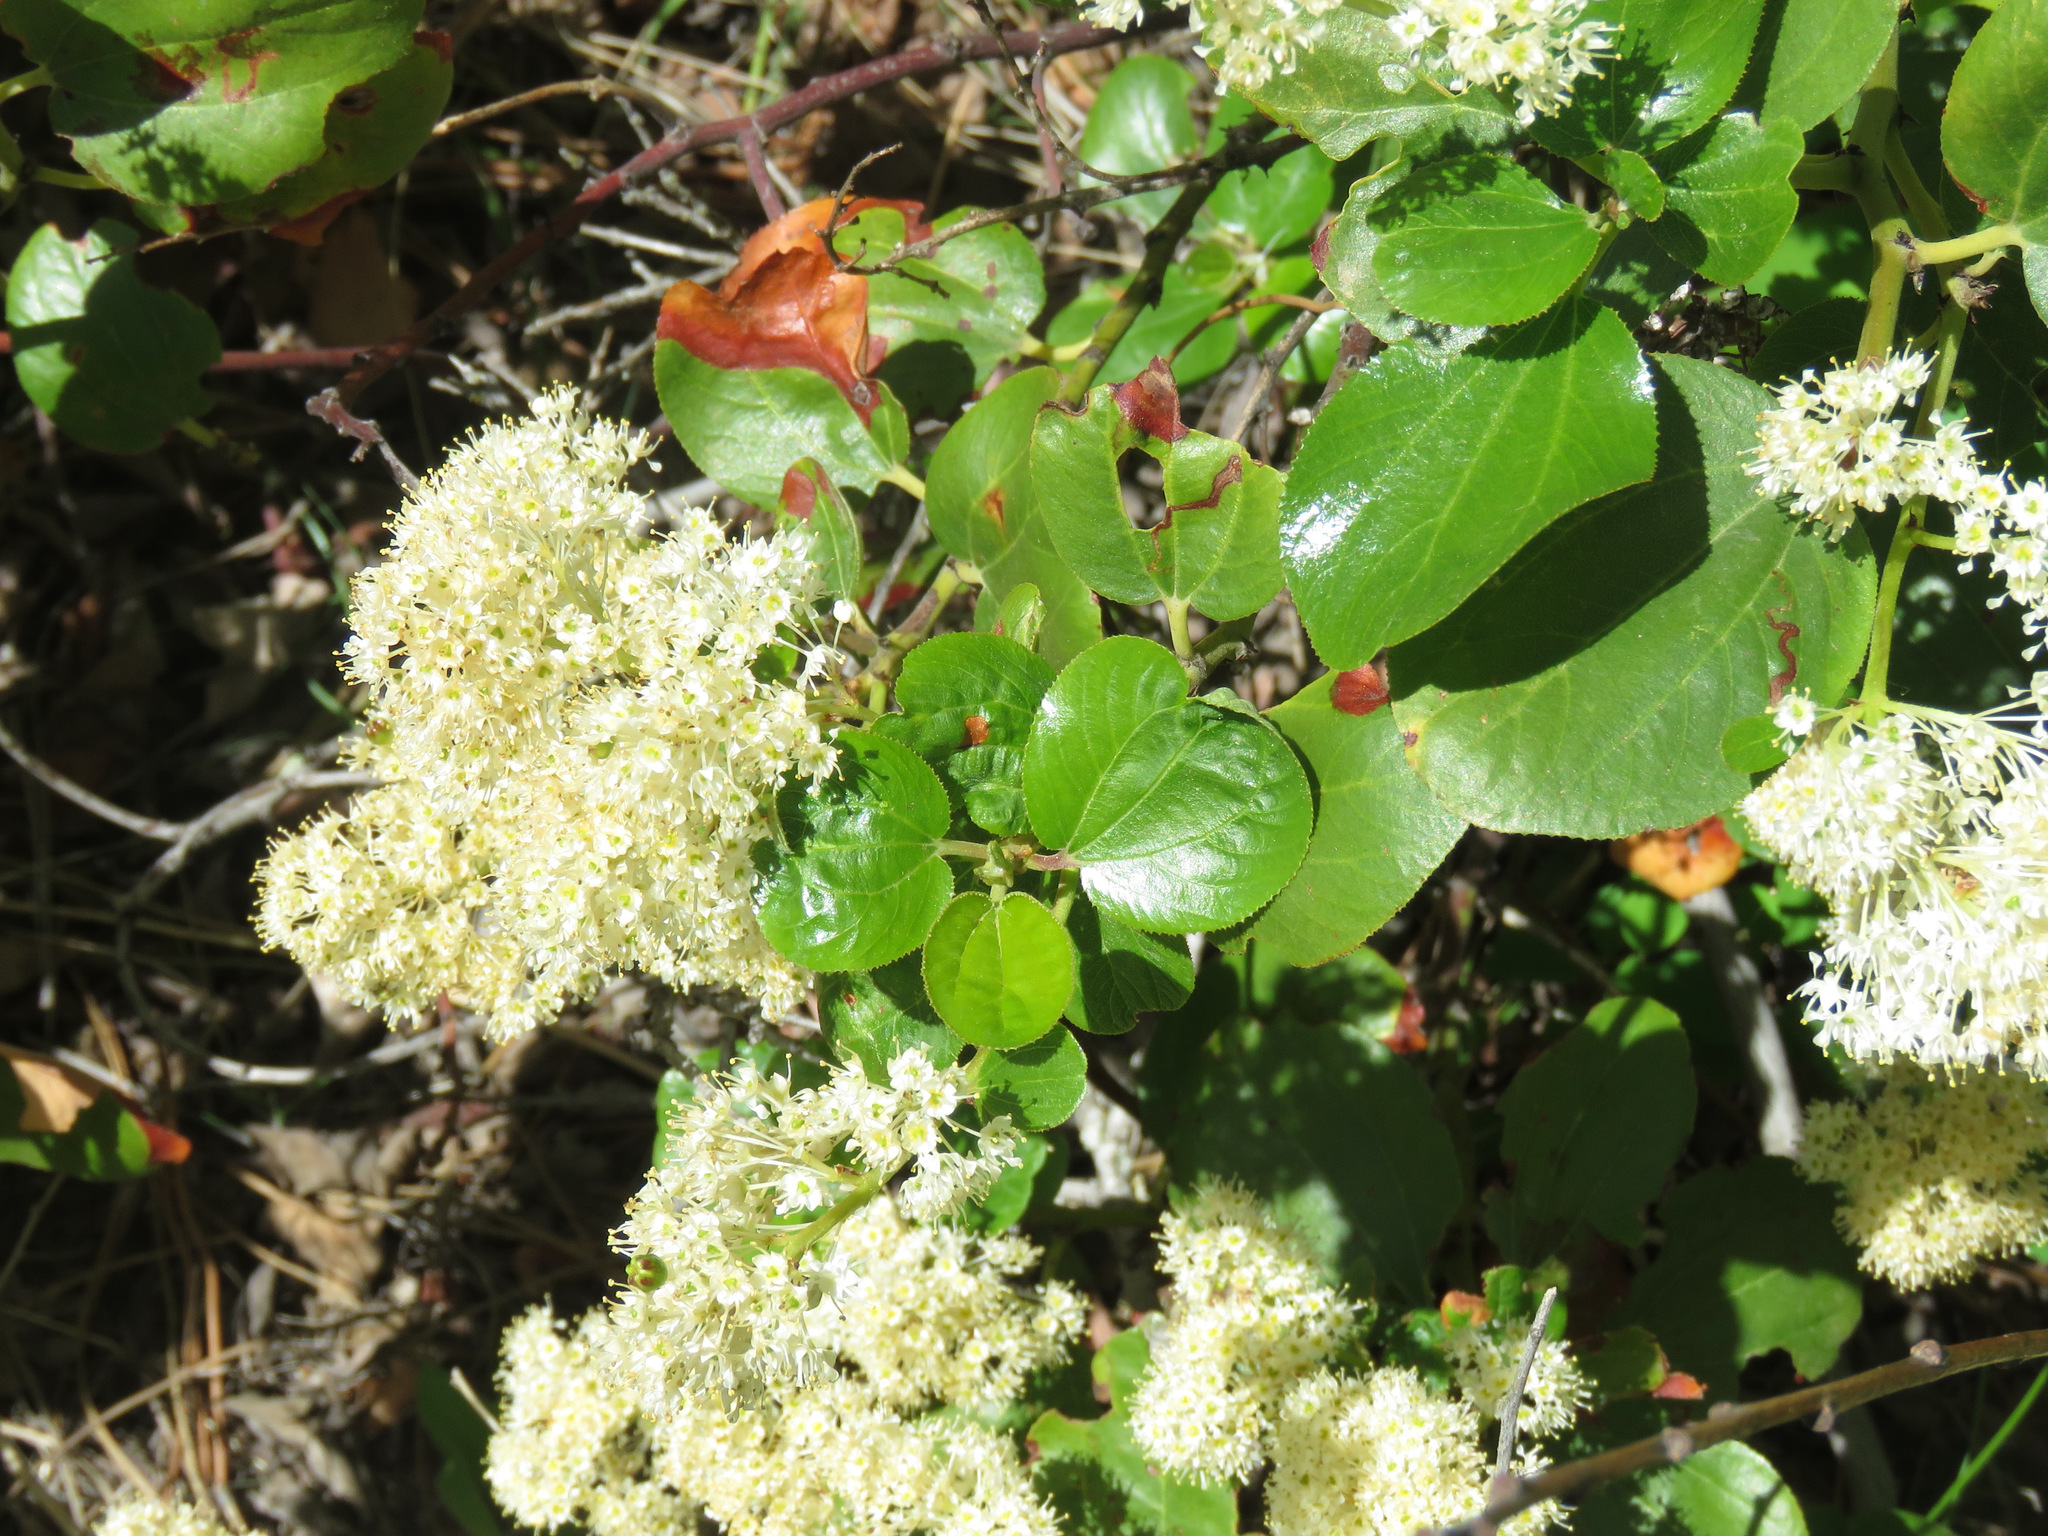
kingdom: Plantae
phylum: Tracheophyta
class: Magnoliopsida
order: Rosales
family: Rhamnaceae
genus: Ceanothus
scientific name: Ceanothus velutinus
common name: Snowbrush
